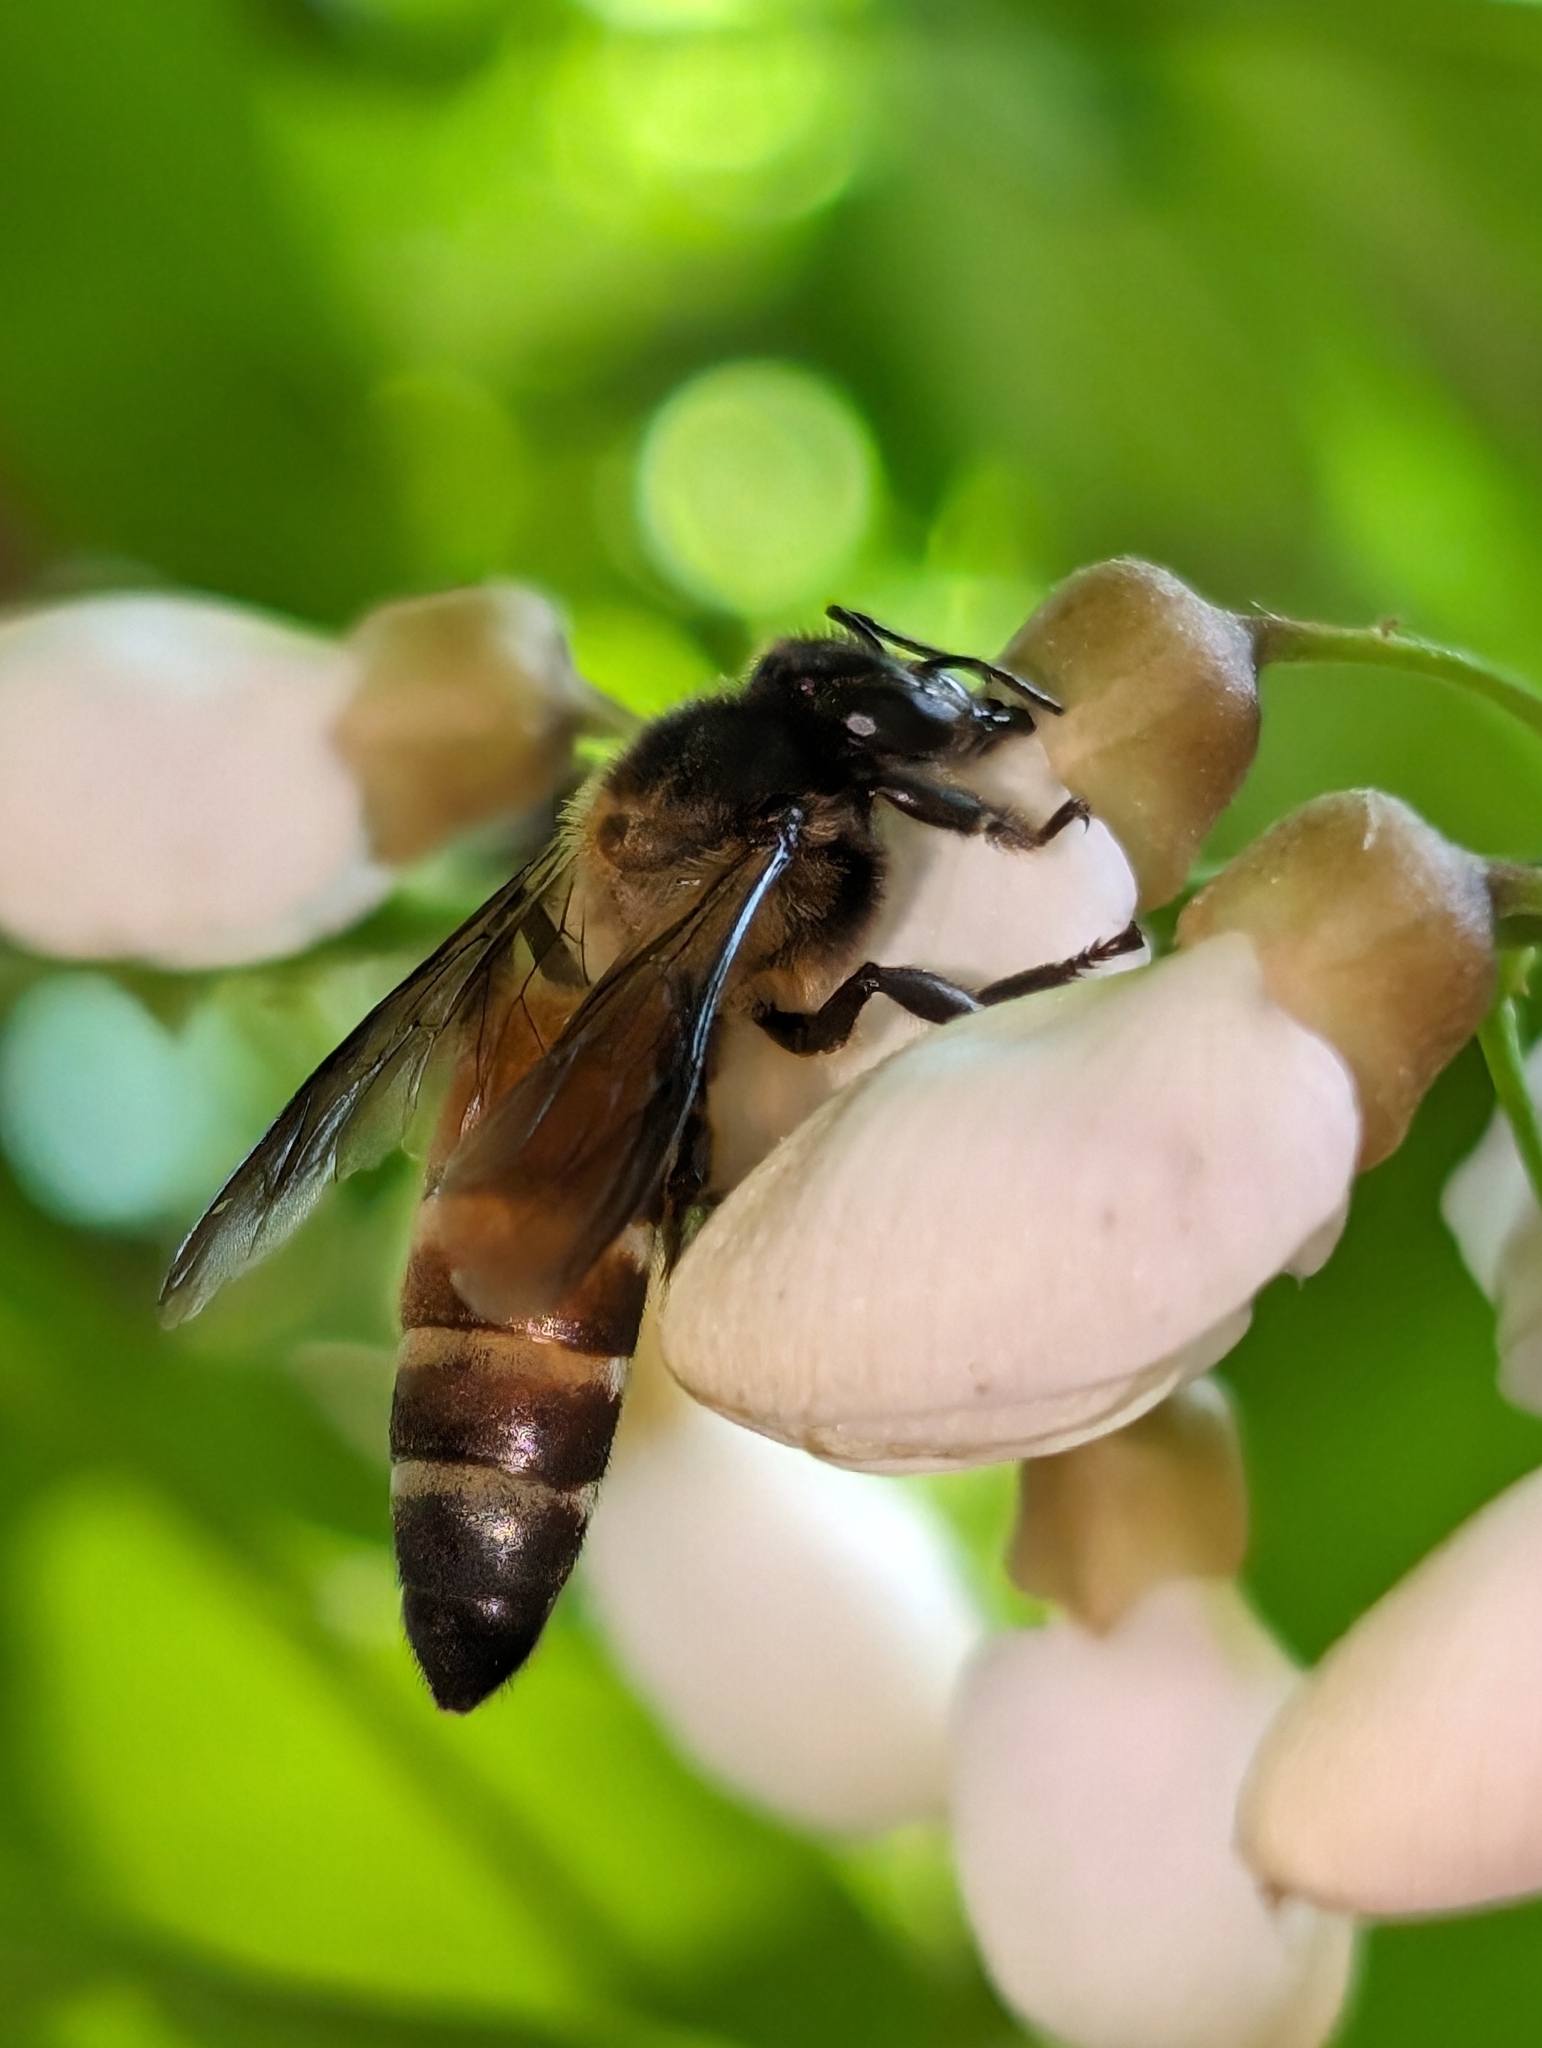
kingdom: Animalia
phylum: Arthropoda
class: Insecta
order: Hymenoptera
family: Apidae
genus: Apis
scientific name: Apis dorsata
